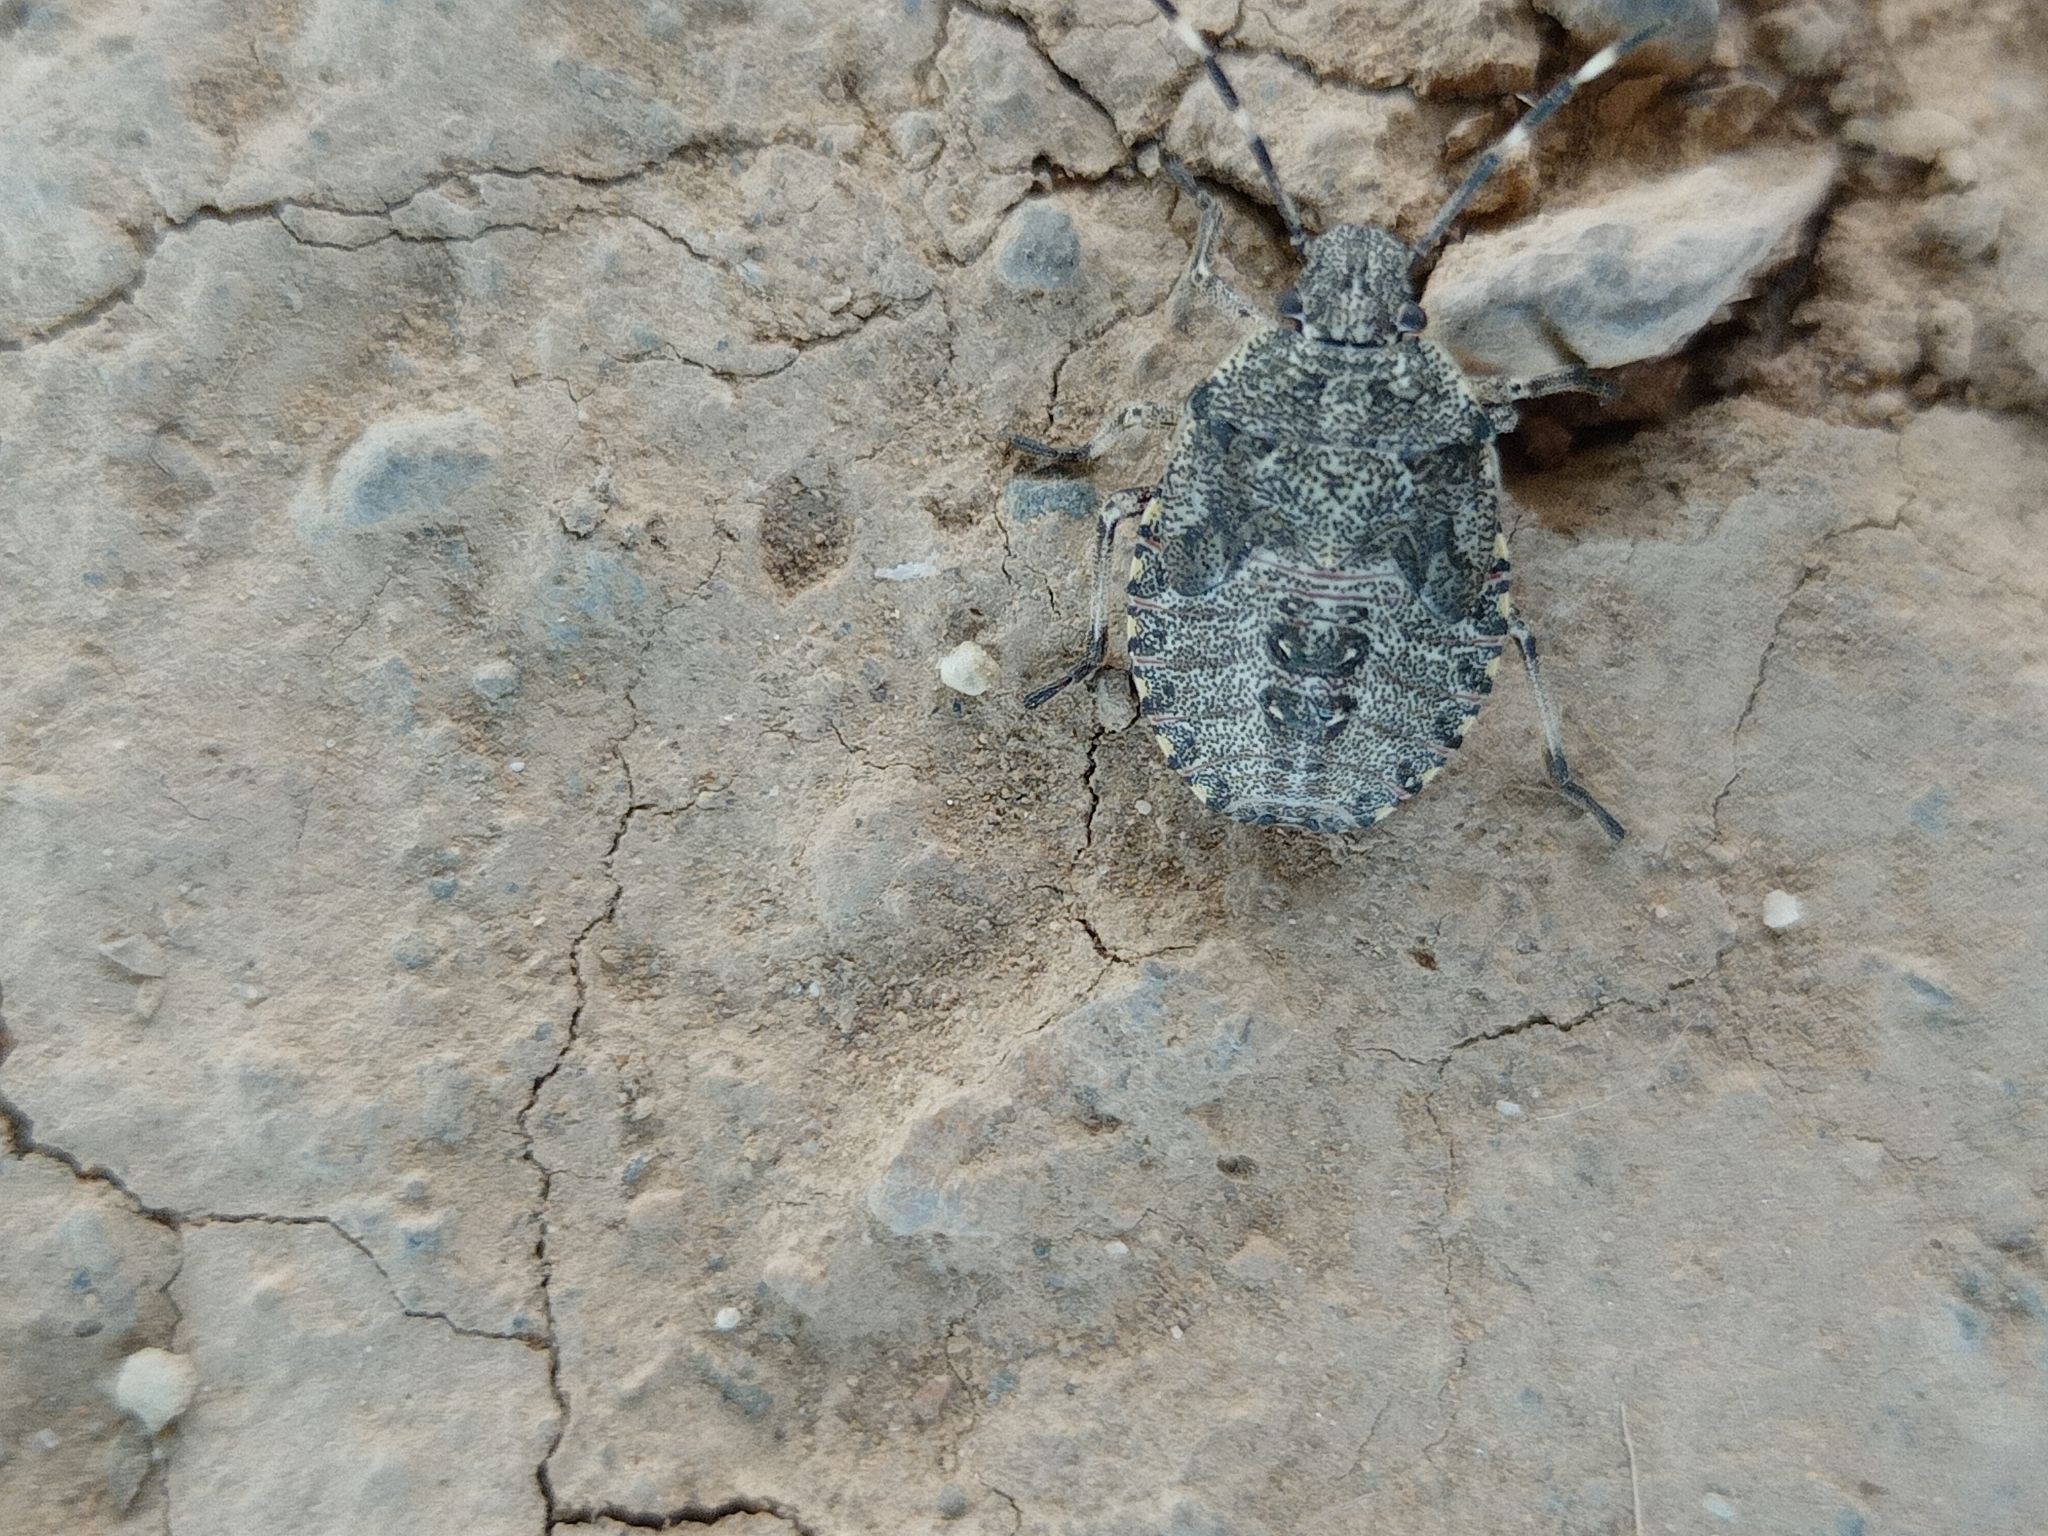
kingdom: Animalia
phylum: Arthropoda
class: Insecta
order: Hemiptera
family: Pentatomidae
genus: Rhaphigaster
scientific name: Rhaphigaster nebulosa
